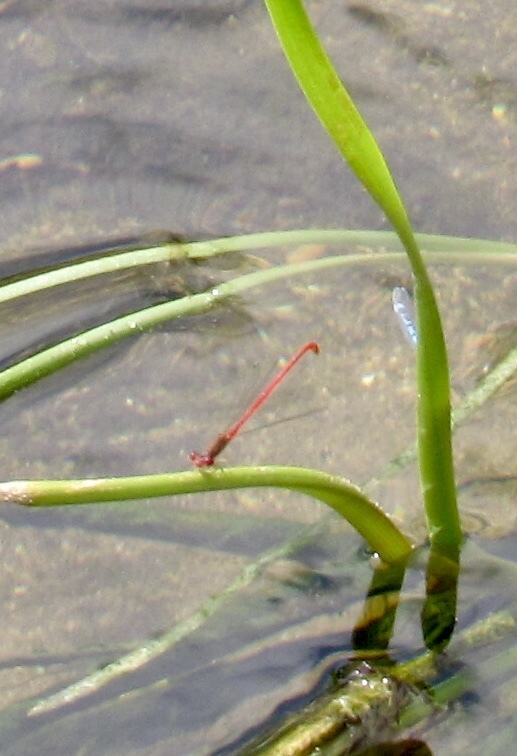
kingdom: Animalia
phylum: Arthropoda
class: Insecta
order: Odonata
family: Coenagrionidae
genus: Telebasis
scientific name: Telebasis salva
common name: Desert firetail
